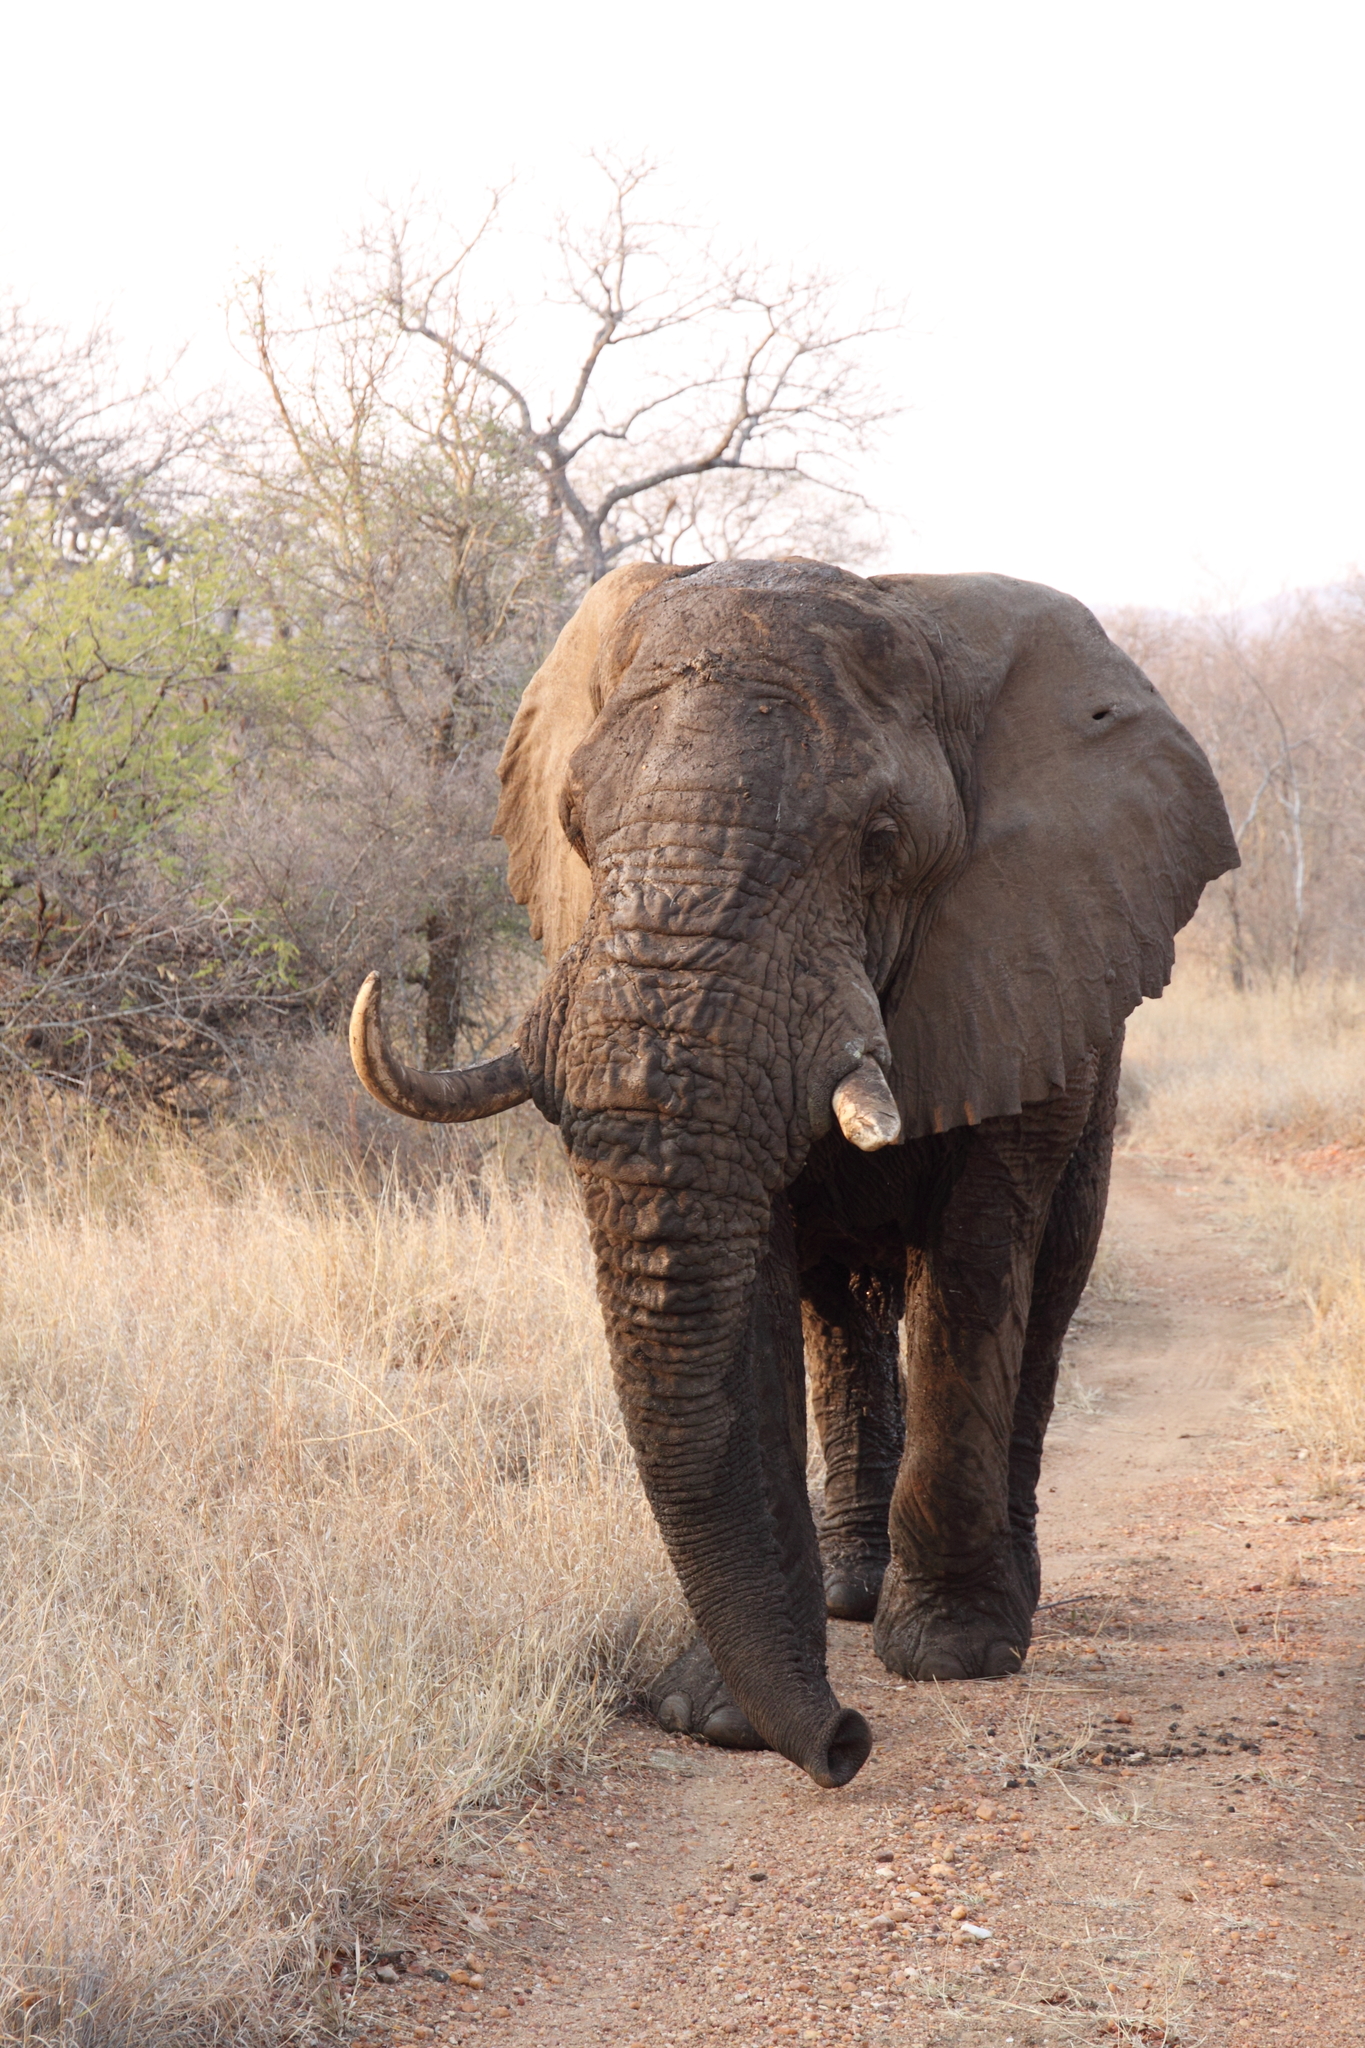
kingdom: Animalia
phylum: Chordata
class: Mammalia
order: Proboscidea
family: Elephantidae
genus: Loxodonta
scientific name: Loxodonta africana
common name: African elephant
